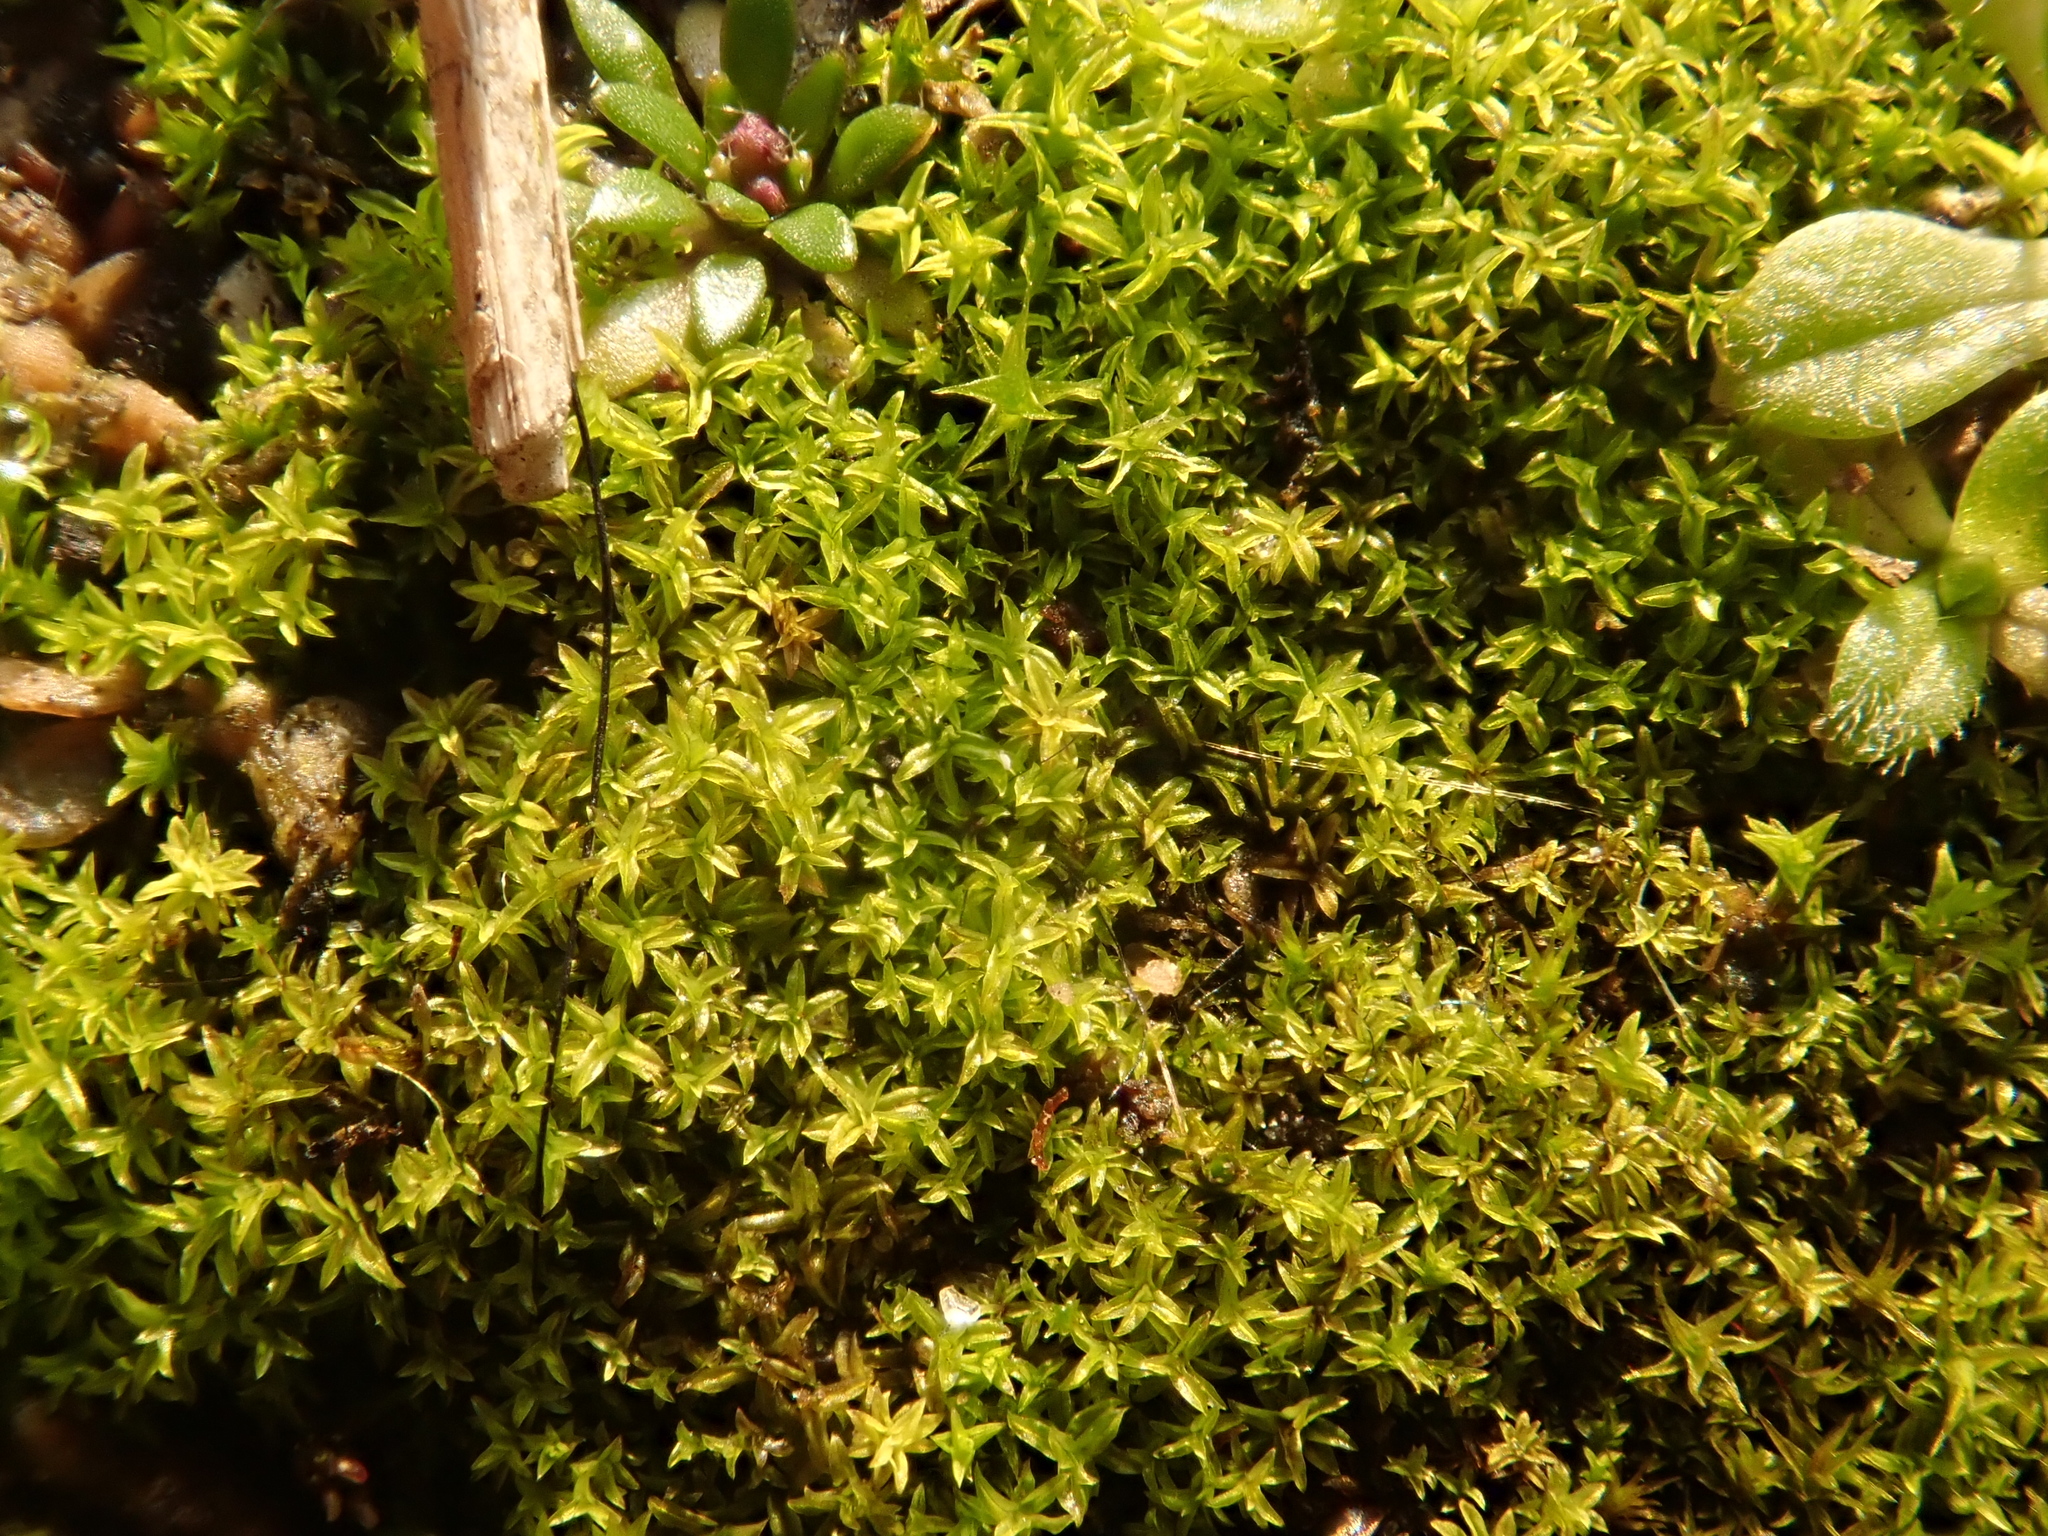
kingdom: Plantae
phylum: Bryophyta
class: Bryopsida
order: Pottiales
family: Pottiaceae
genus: Barbula
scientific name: Barbula unguiculata
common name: Prickly beard moss
